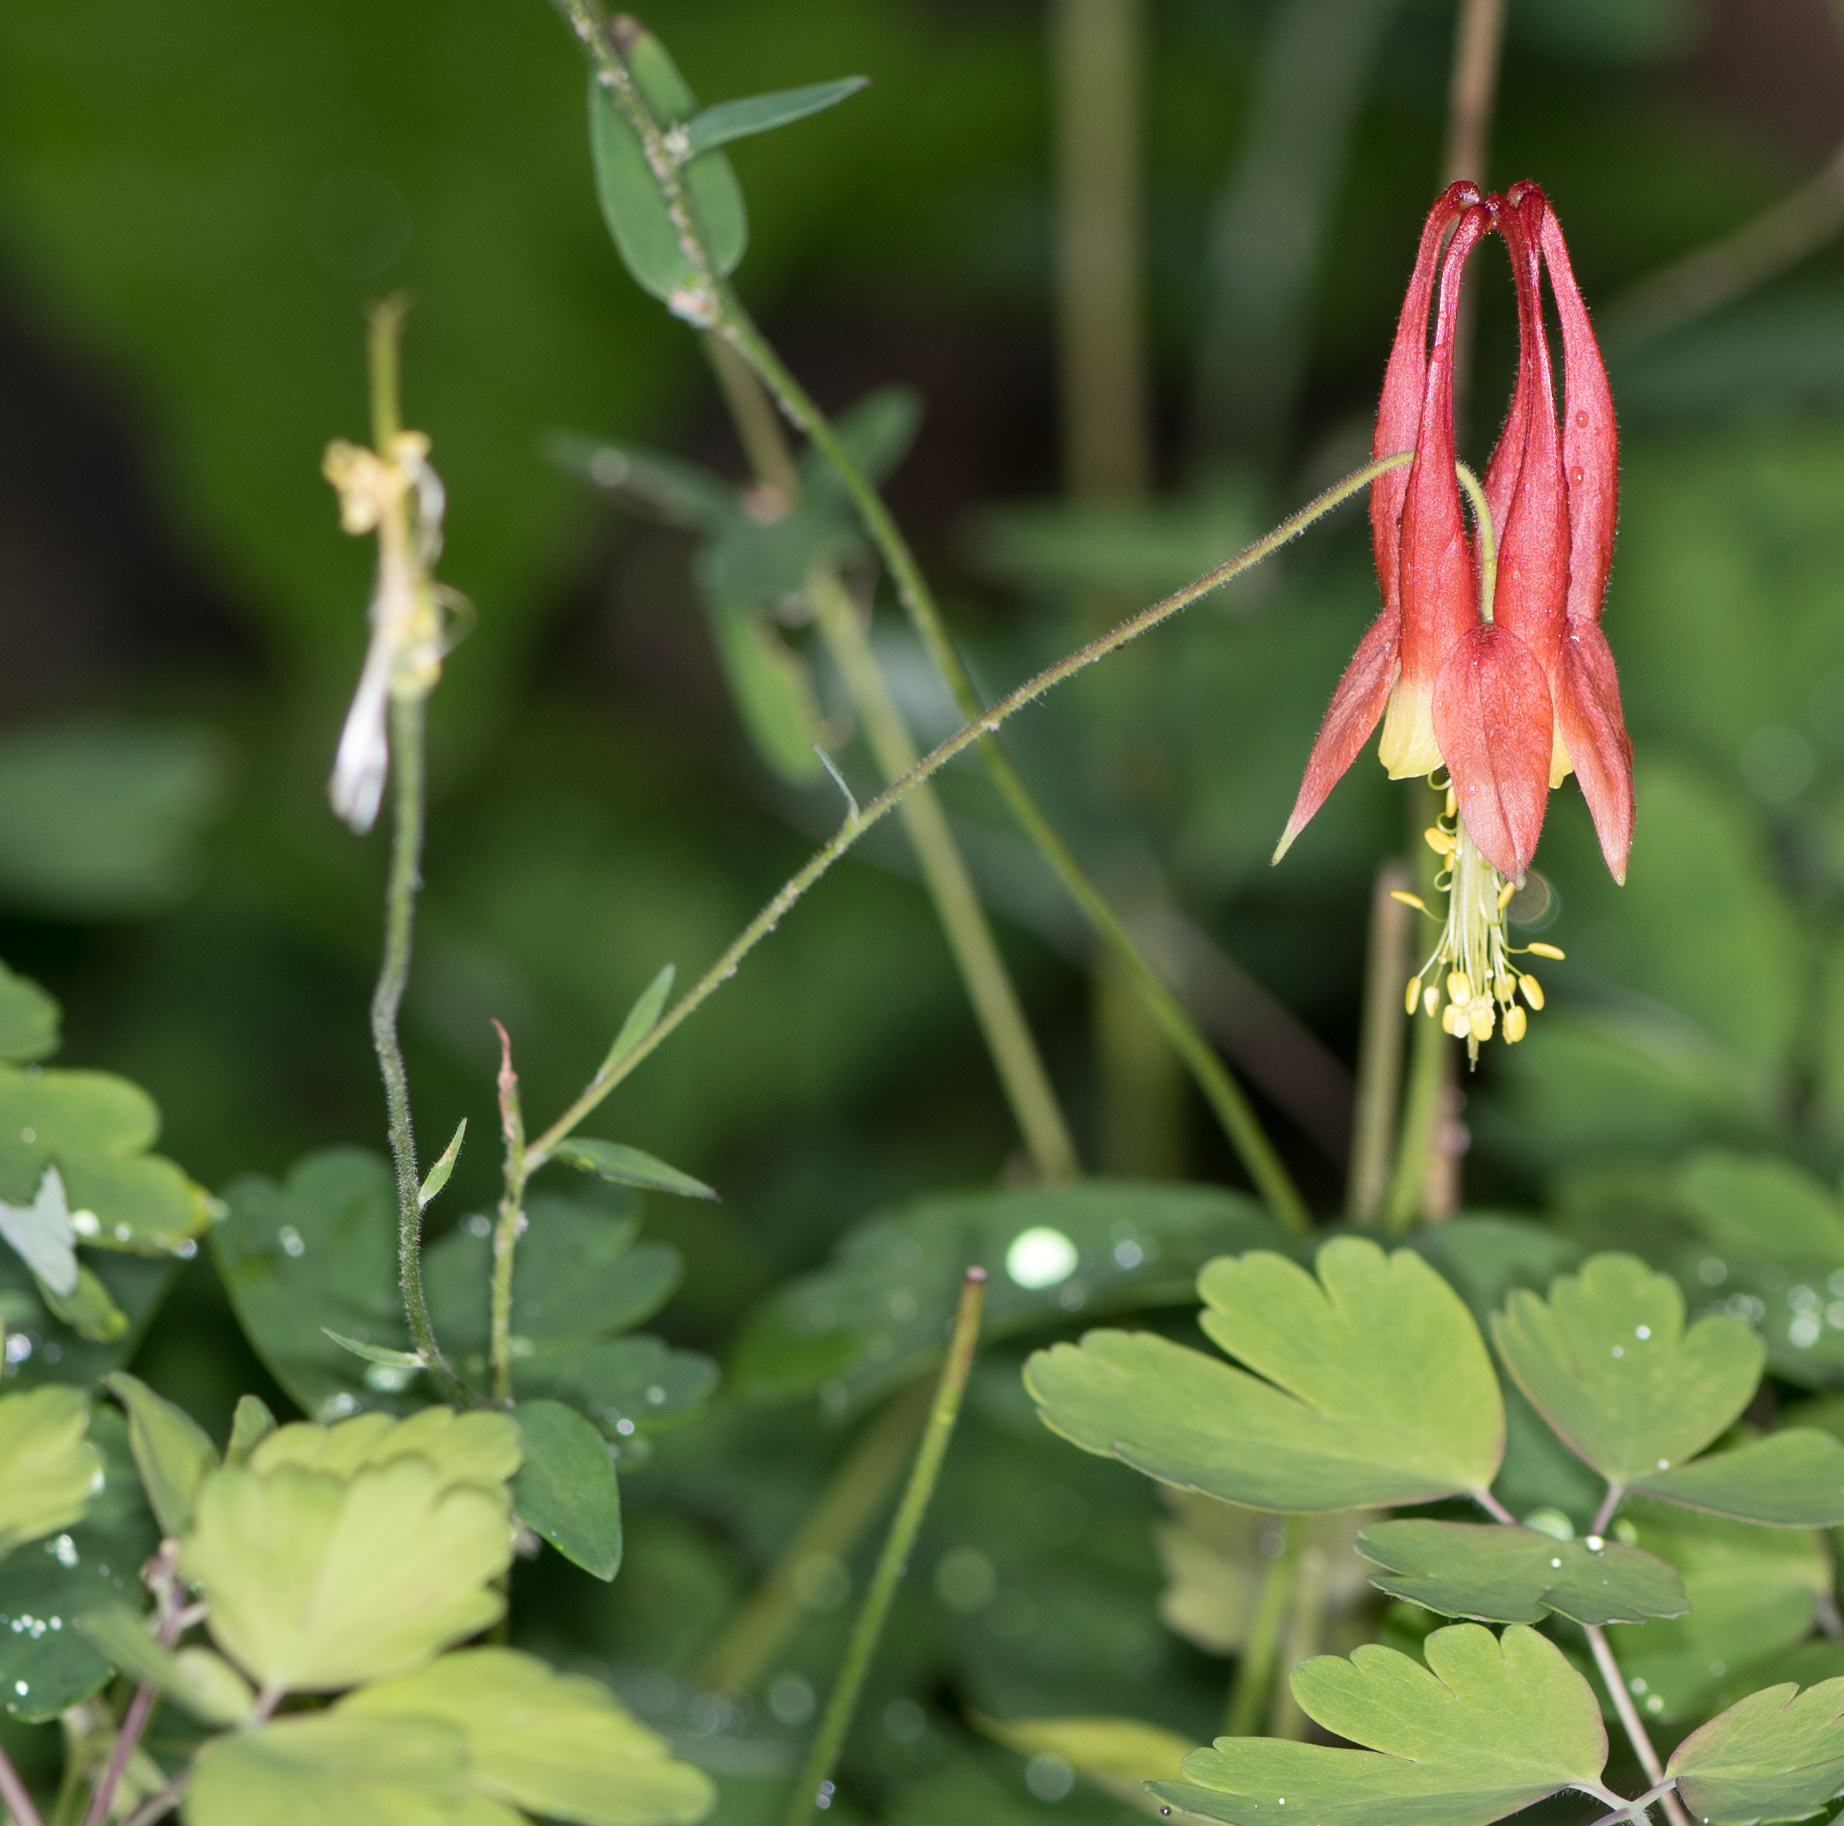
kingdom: Plantae
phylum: Tracheophyta
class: Magnoliopsida
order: Ranunculales
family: Ranunculaceae
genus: Aquilegia
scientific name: Aquilegia canadensis
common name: American columbine
